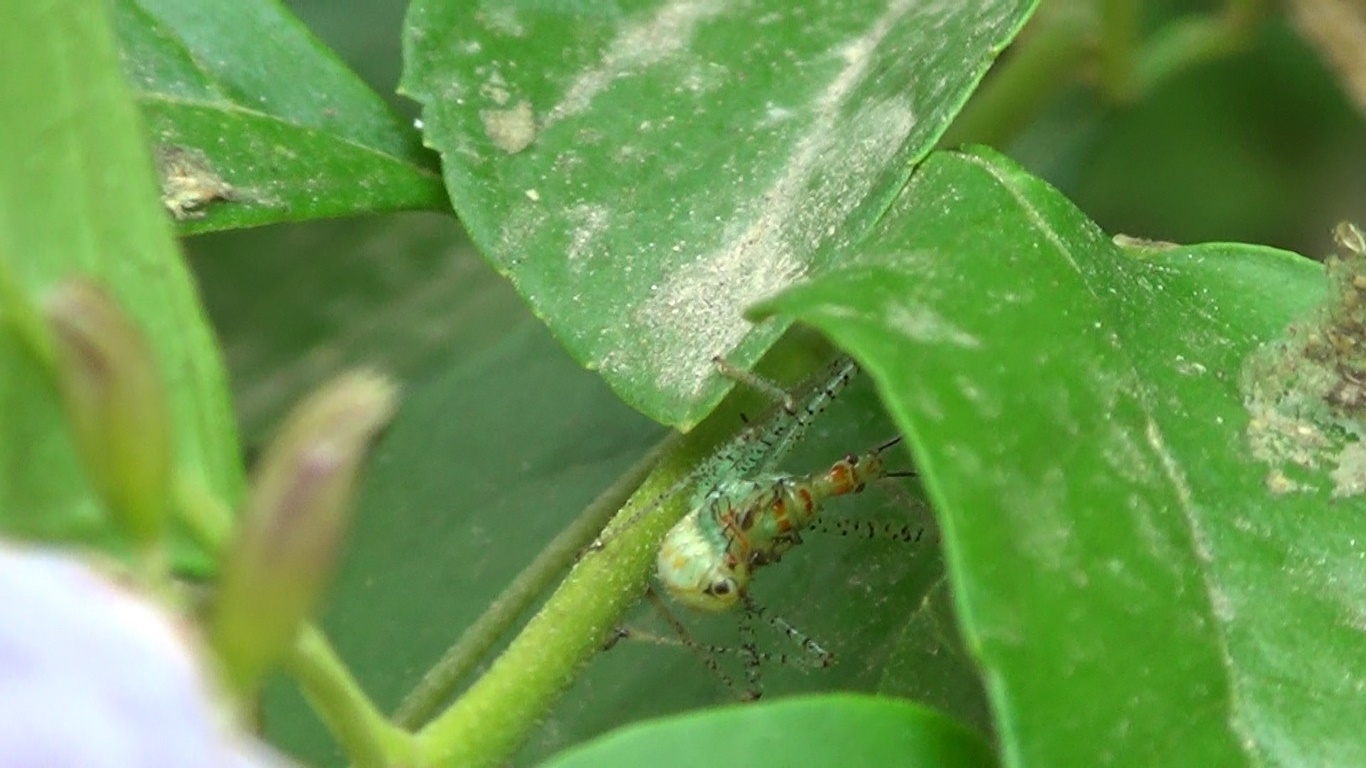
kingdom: Animalia
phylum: Arthropoda
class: Insecta
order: Hemiptera
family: Reduviidae
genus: Zelus
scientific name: Zelus renardii
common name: Assassin bug
